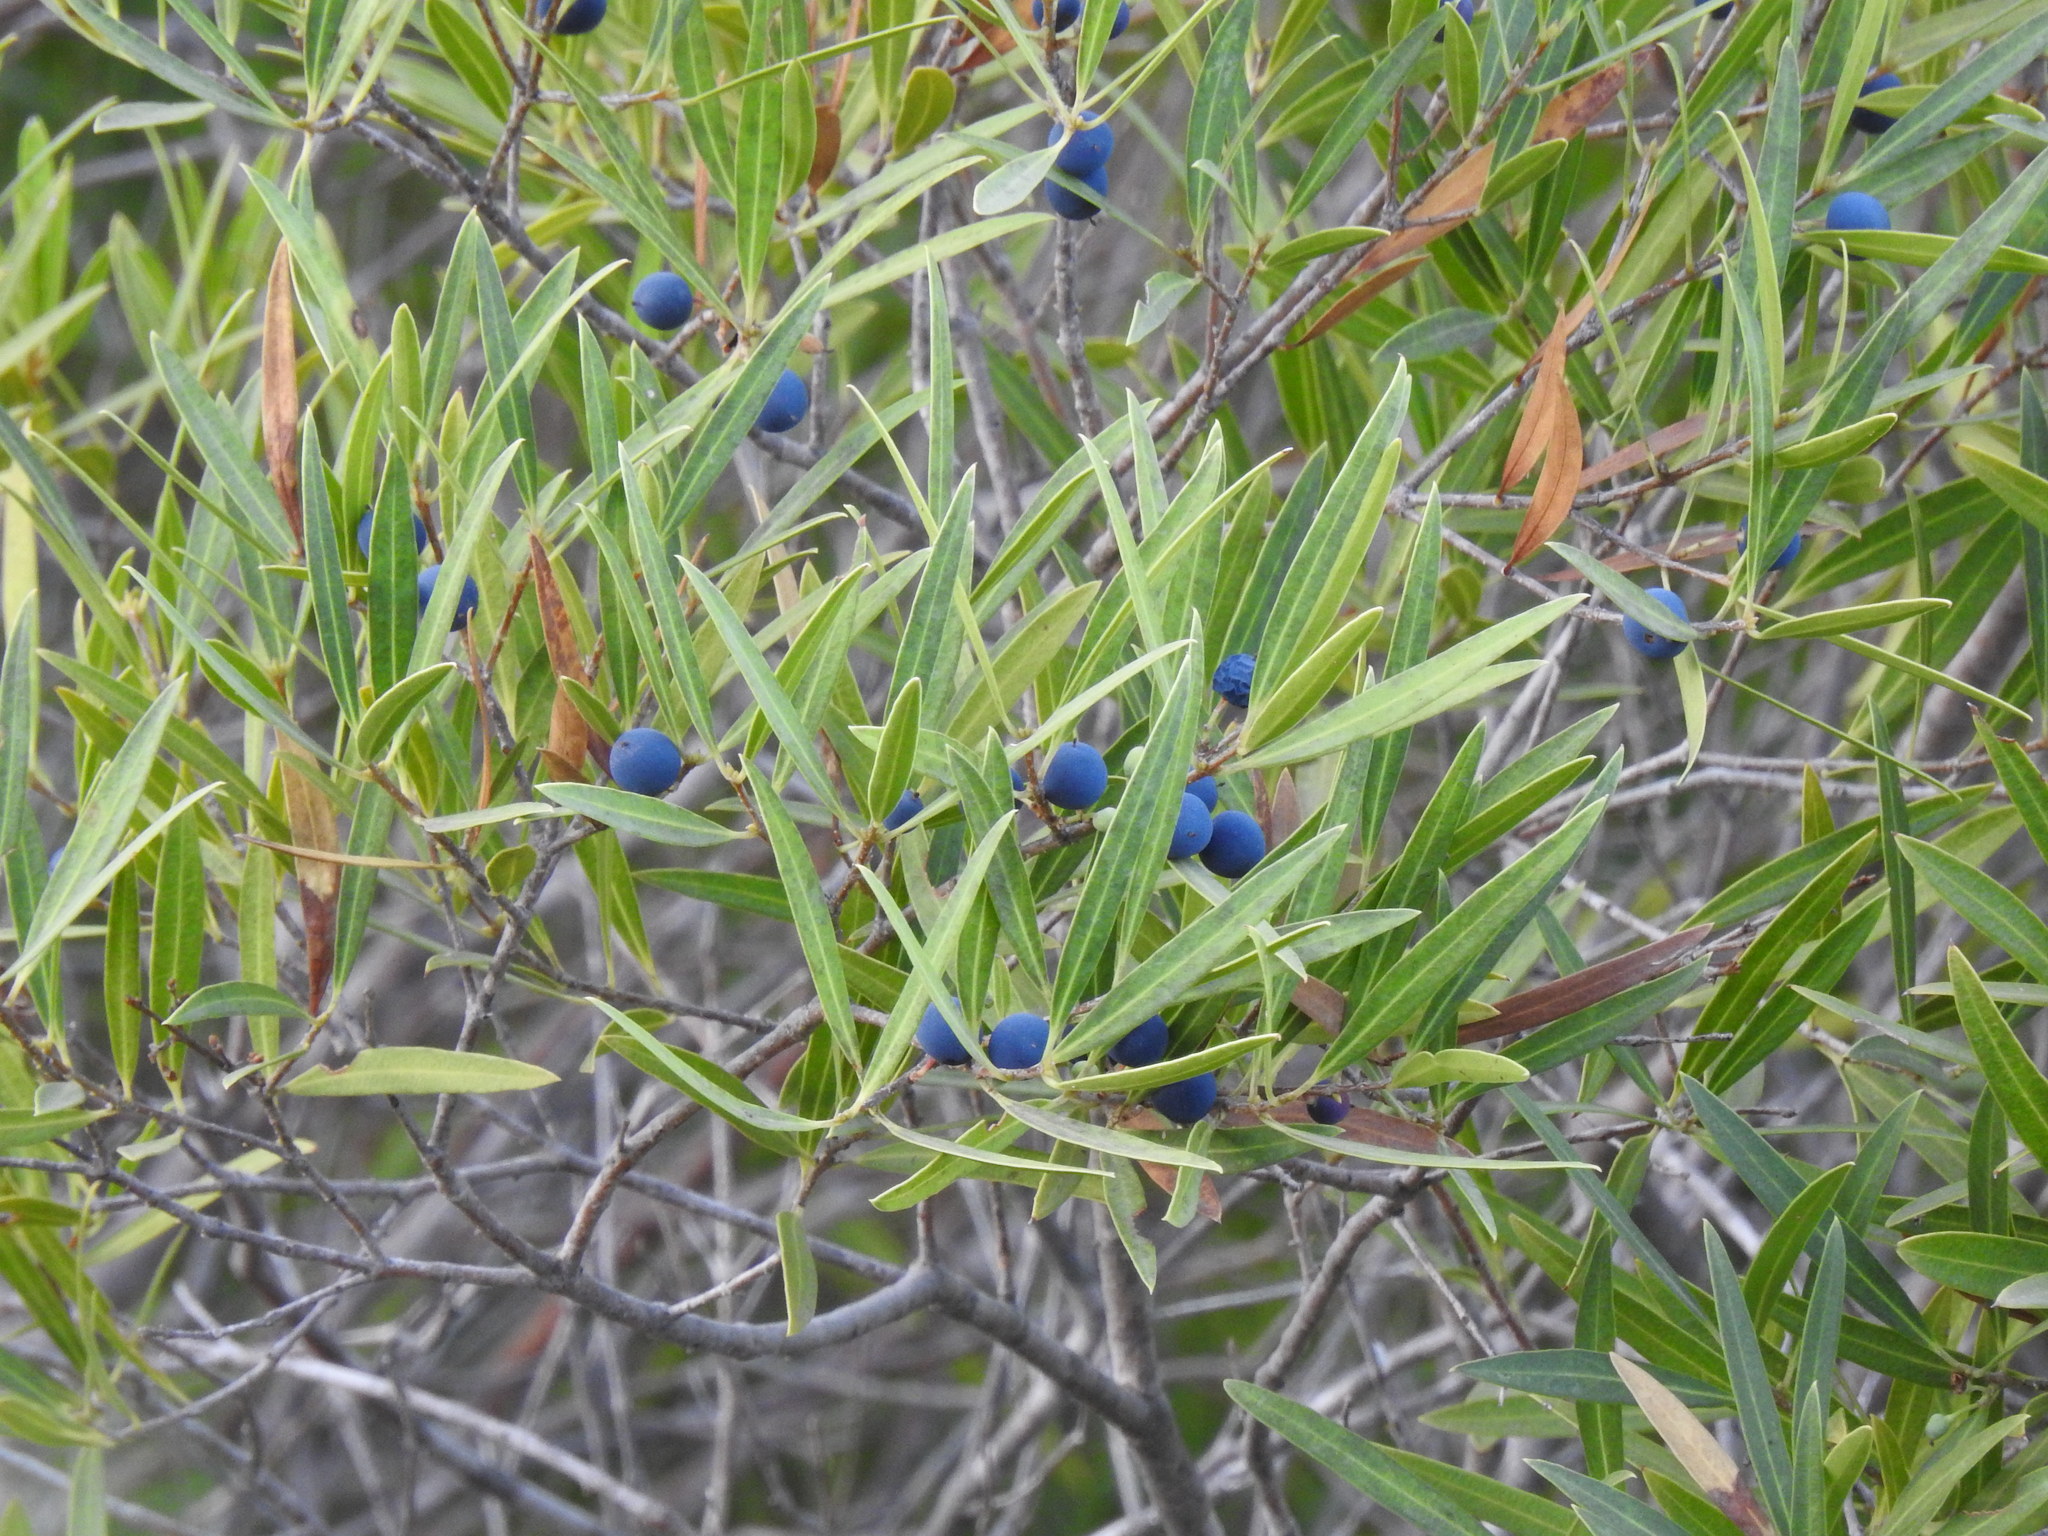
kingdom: Plantae
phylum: Tracheophyta
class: Magnoliopsida
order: Lamiales
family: Oleaceae
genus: Phillyrea
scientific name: Phillyrea angustifolia
